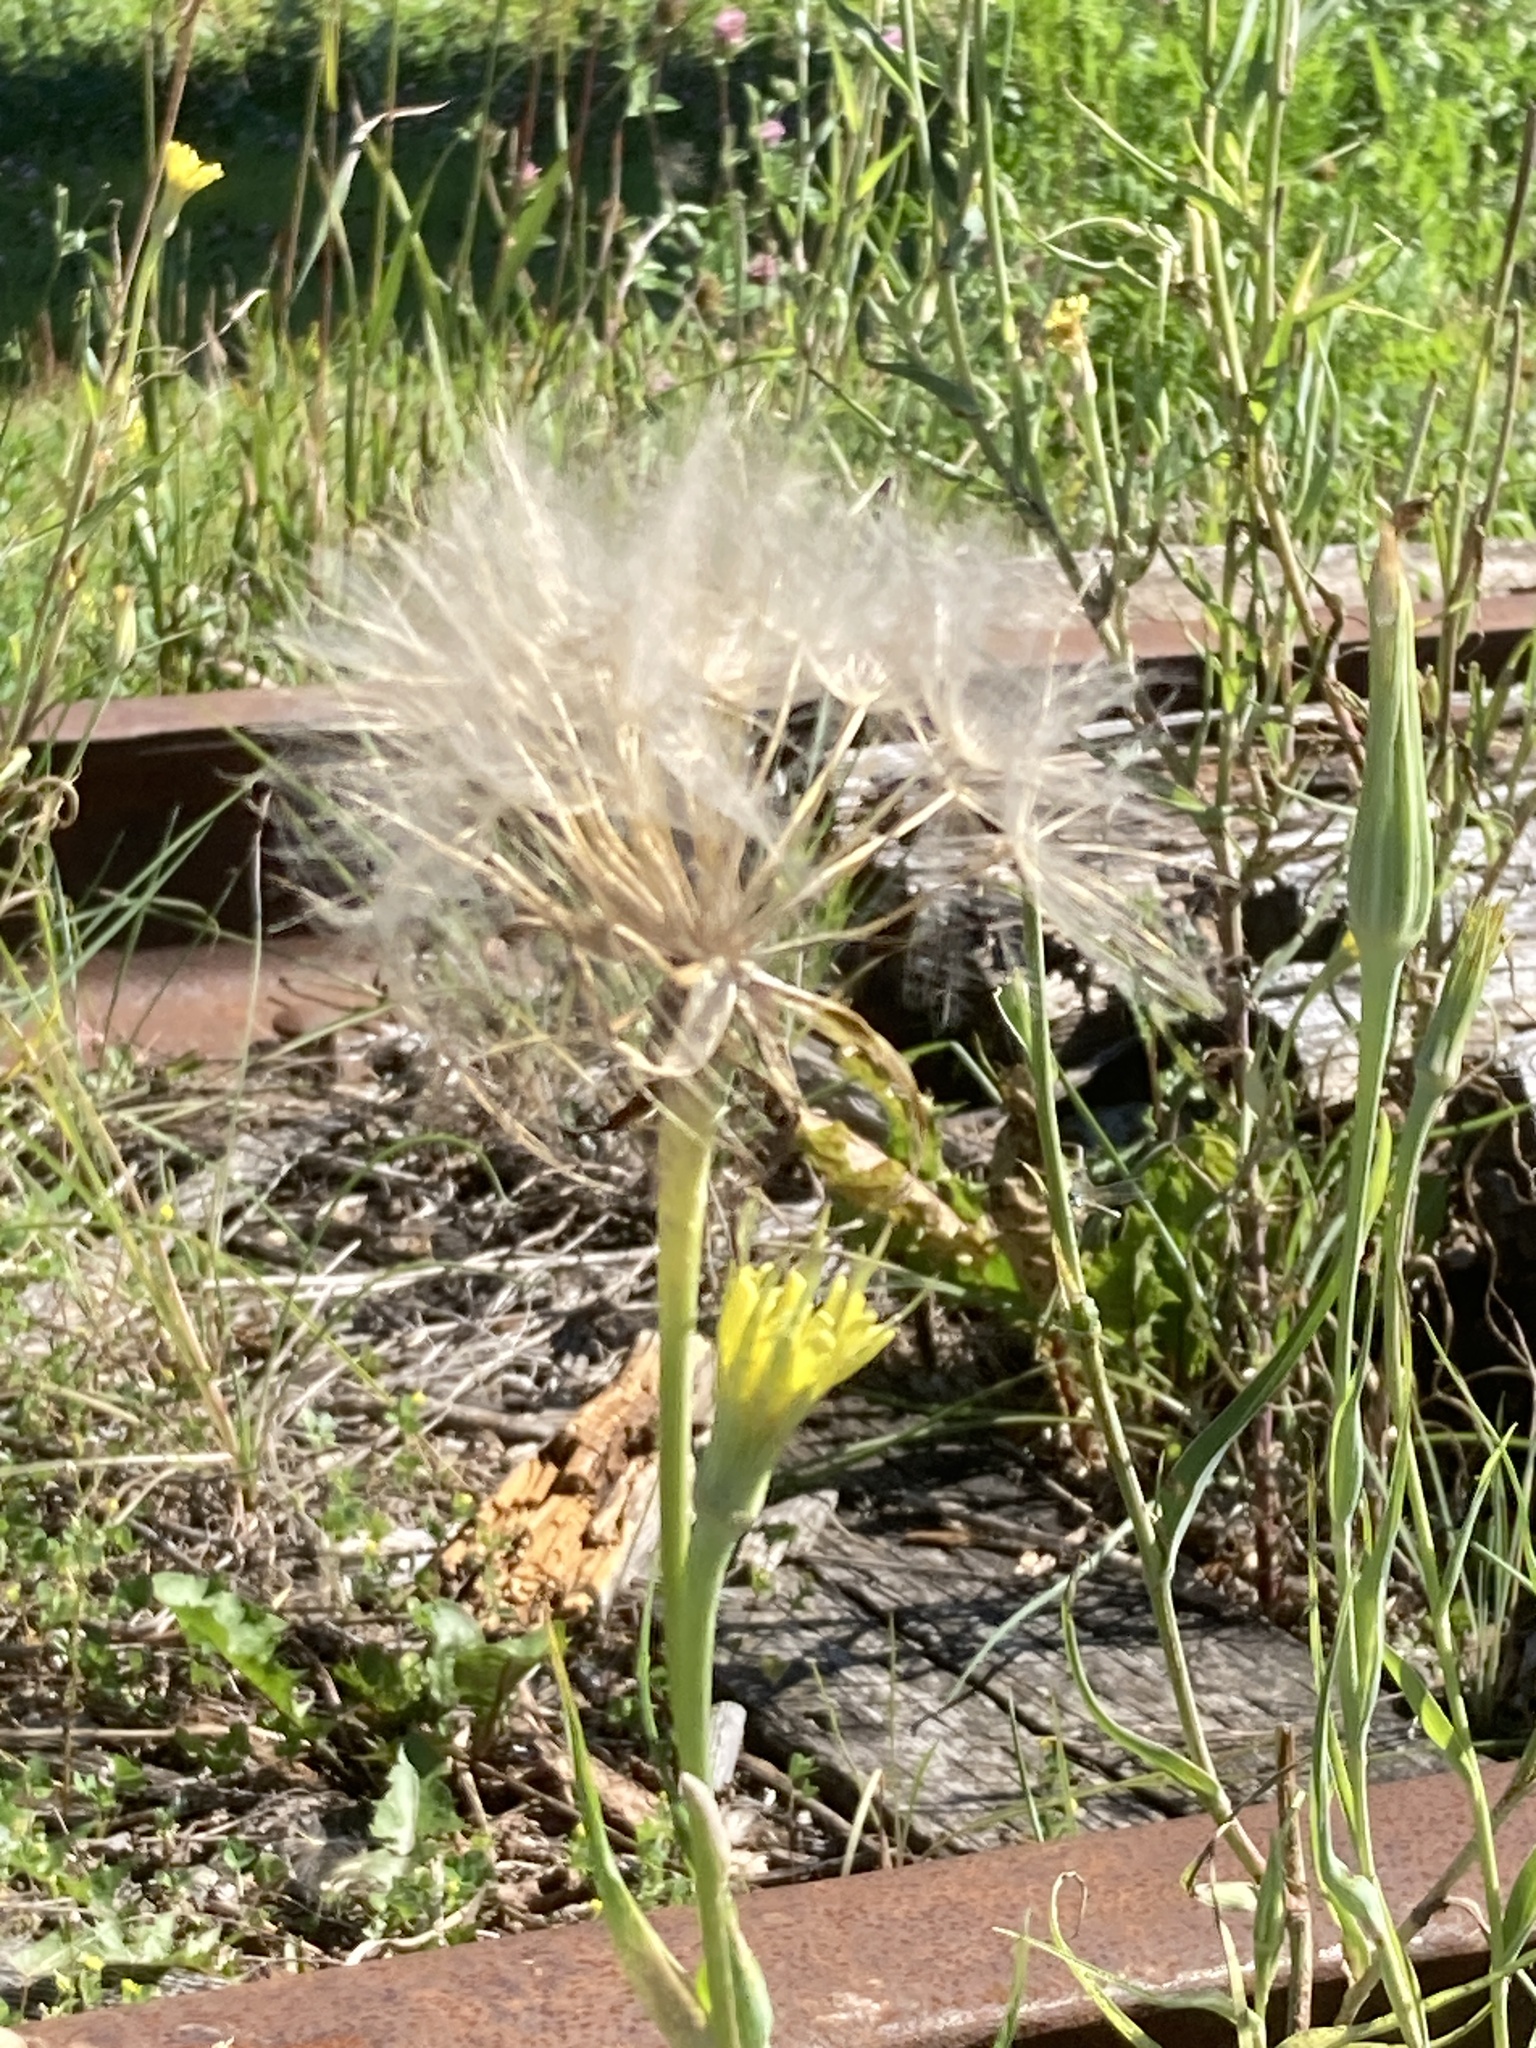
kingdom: Plantae
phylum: Tracheophyta
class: Magnoliopsida
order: Asterales
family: Asteraceae
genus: Tragopogon
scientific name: Tragopogon dubius
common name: Yellow salsify
